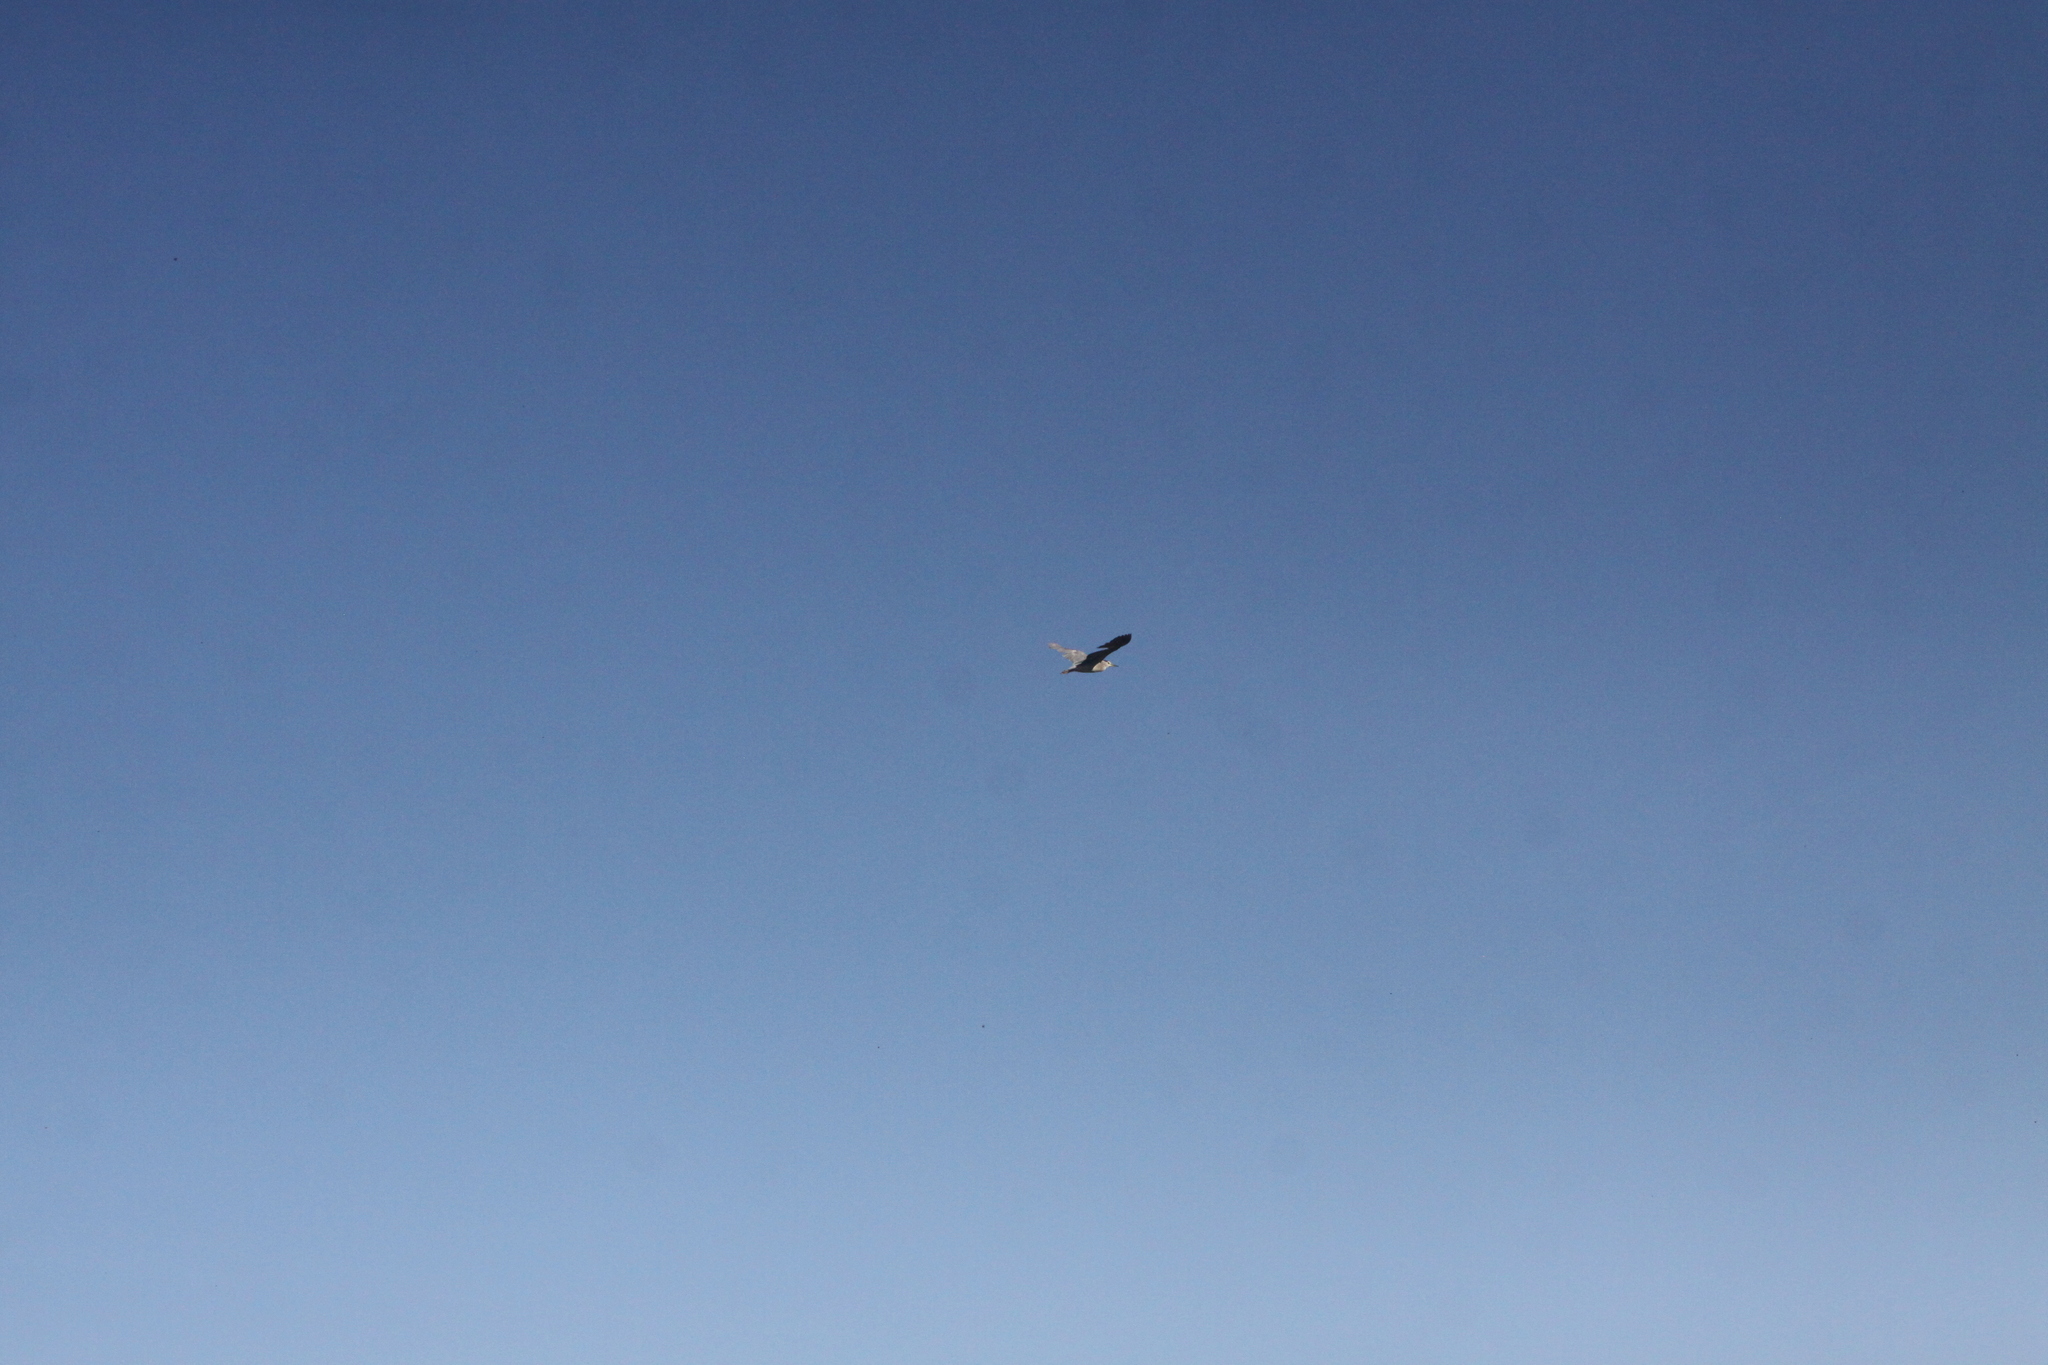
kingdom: Animalia
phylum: Chordata
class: Aves
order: Pelecaniformes
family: Ardeidae
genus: Nycticorax
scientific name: Nycticorax nycticorax
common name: Black-crowned night heron
